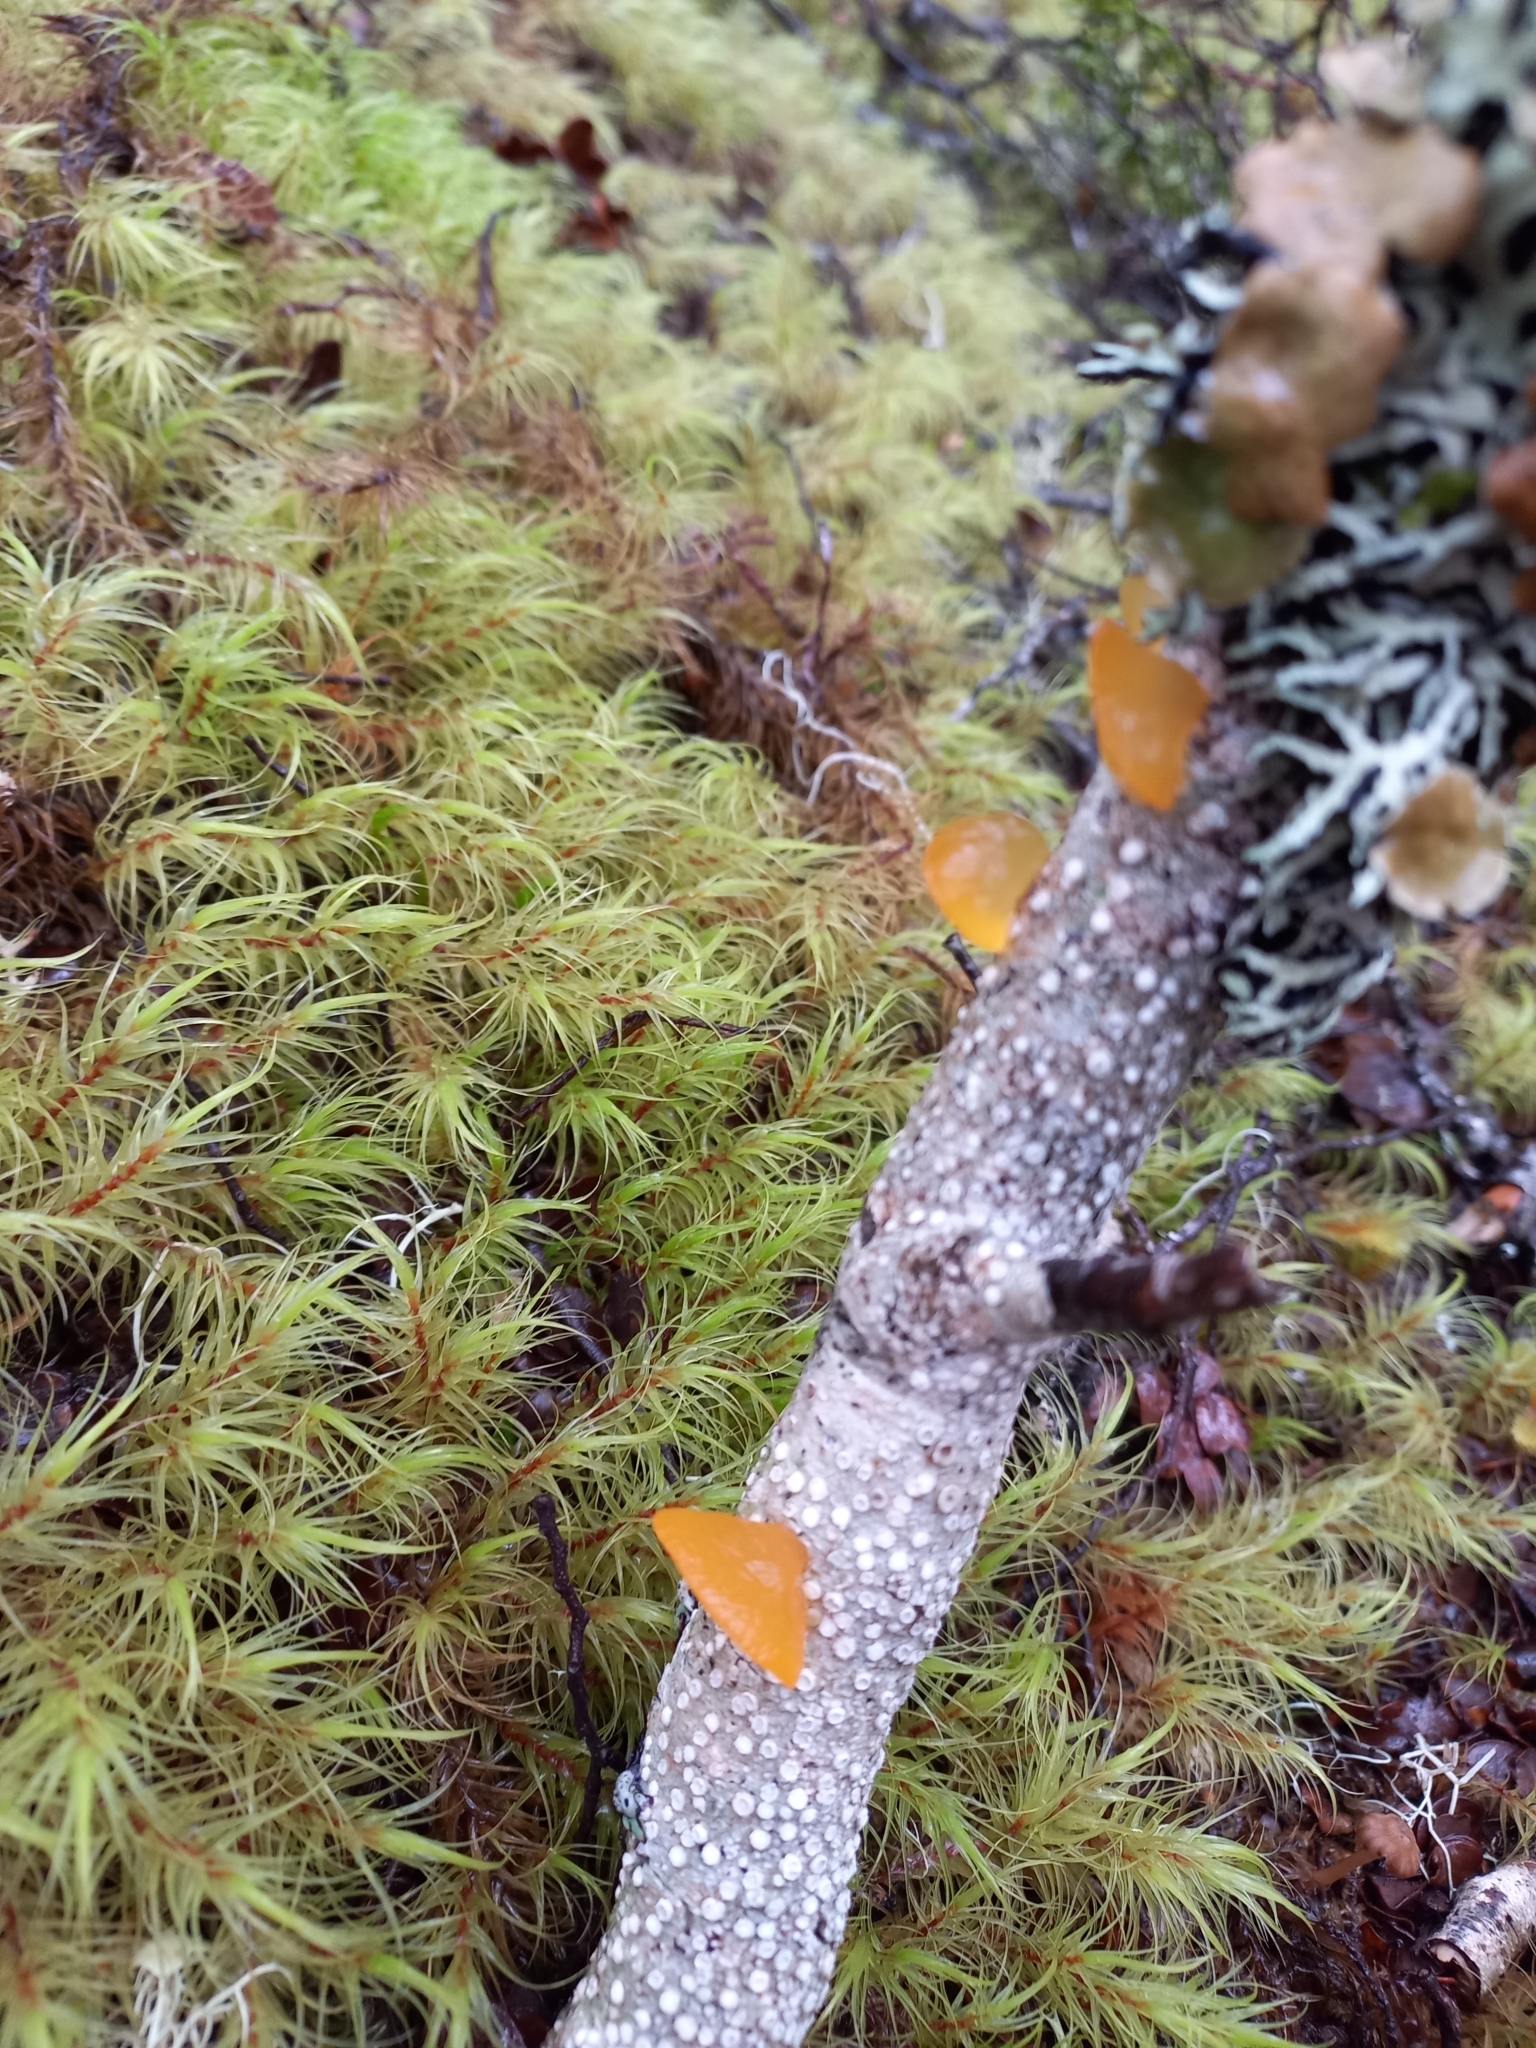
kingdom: Fungi
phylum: Basidiomycota
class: Dacrymycetes
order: Dacrymycetales
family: Dacrymycetaceae
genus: Heterotextus
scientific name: Heterotextus miltinus
